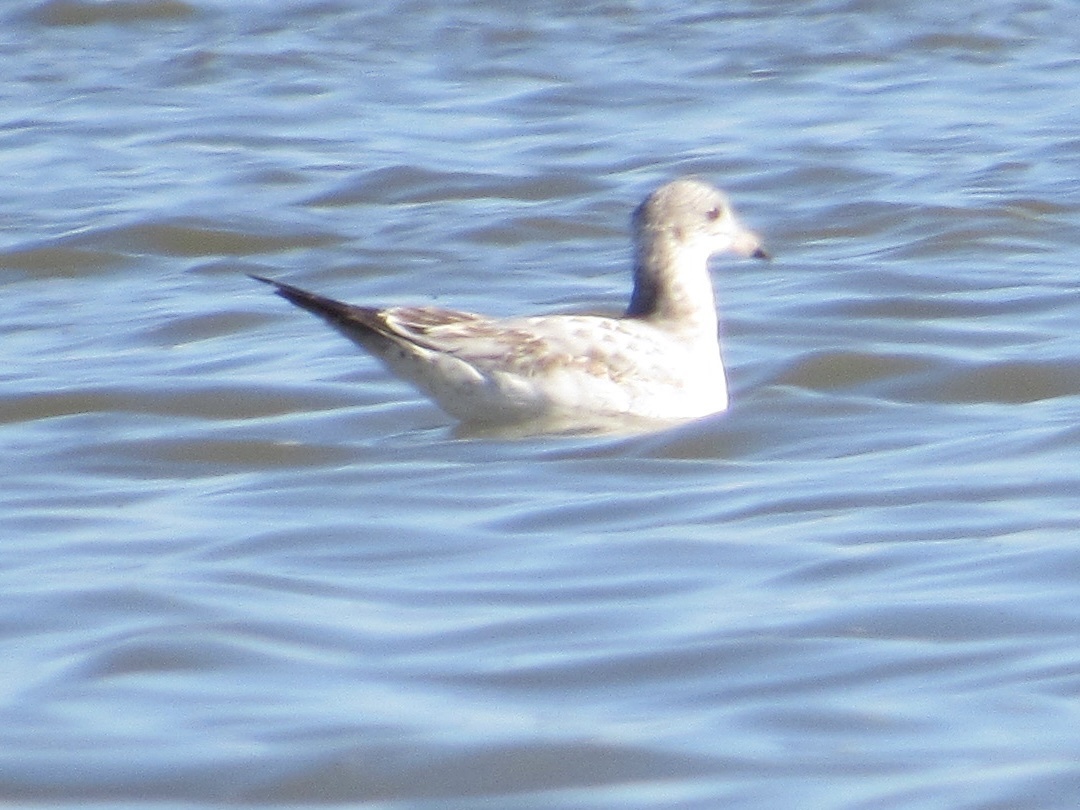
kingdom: Animalia
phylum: Chordata
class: Aves
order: Charadriiformes
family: Laridae
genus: Larus
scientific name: Larus delawarensis
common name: Ring-billed gull
